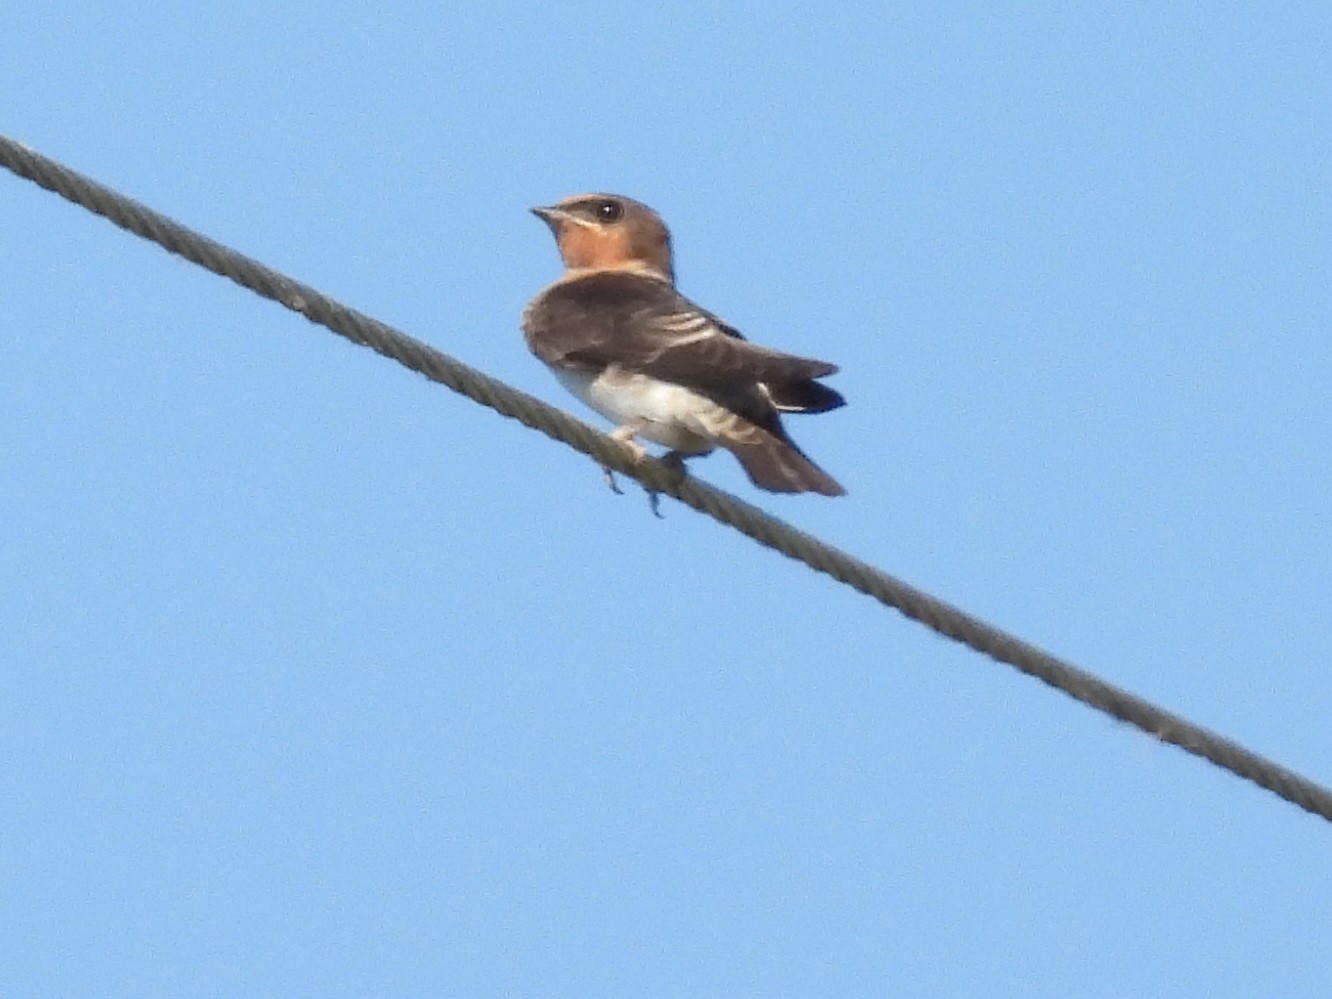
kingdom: Animalia
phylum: Chordata
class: Aves
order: Passeriformes
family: Hirundinidae
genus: Petrochelidon
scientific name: Petrochelidon pyrrhonota
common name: American cliff swallow
